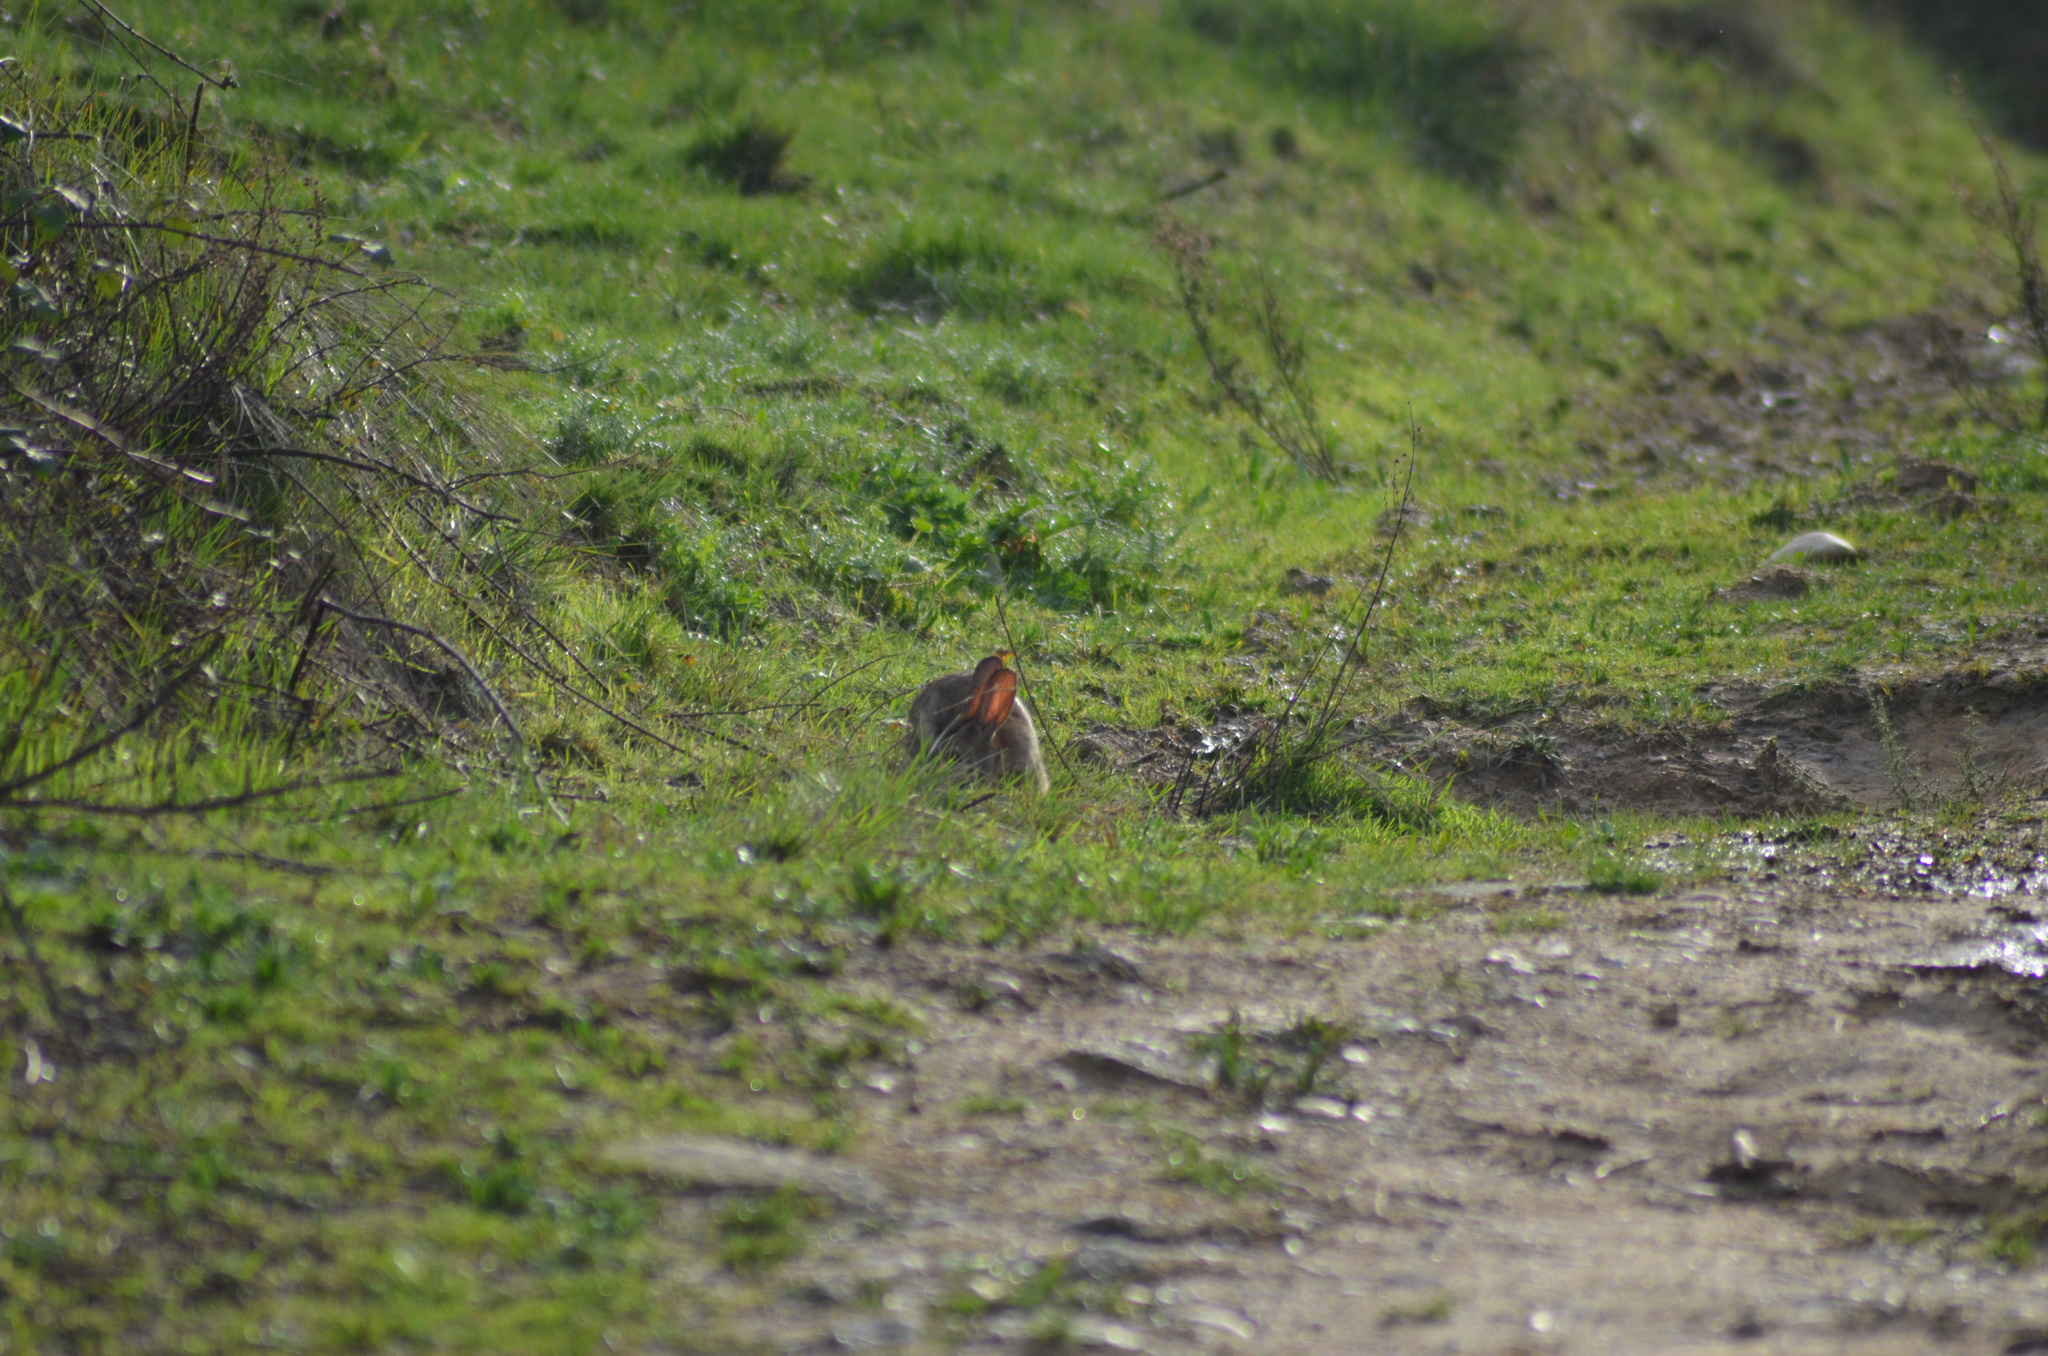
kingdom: Animalia
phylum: Chordata
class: Mammalia
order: Lagomorpha
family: Leporidae
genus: Oryctolagus
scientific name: Oryctolagus cuniculus
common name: European rabbit
